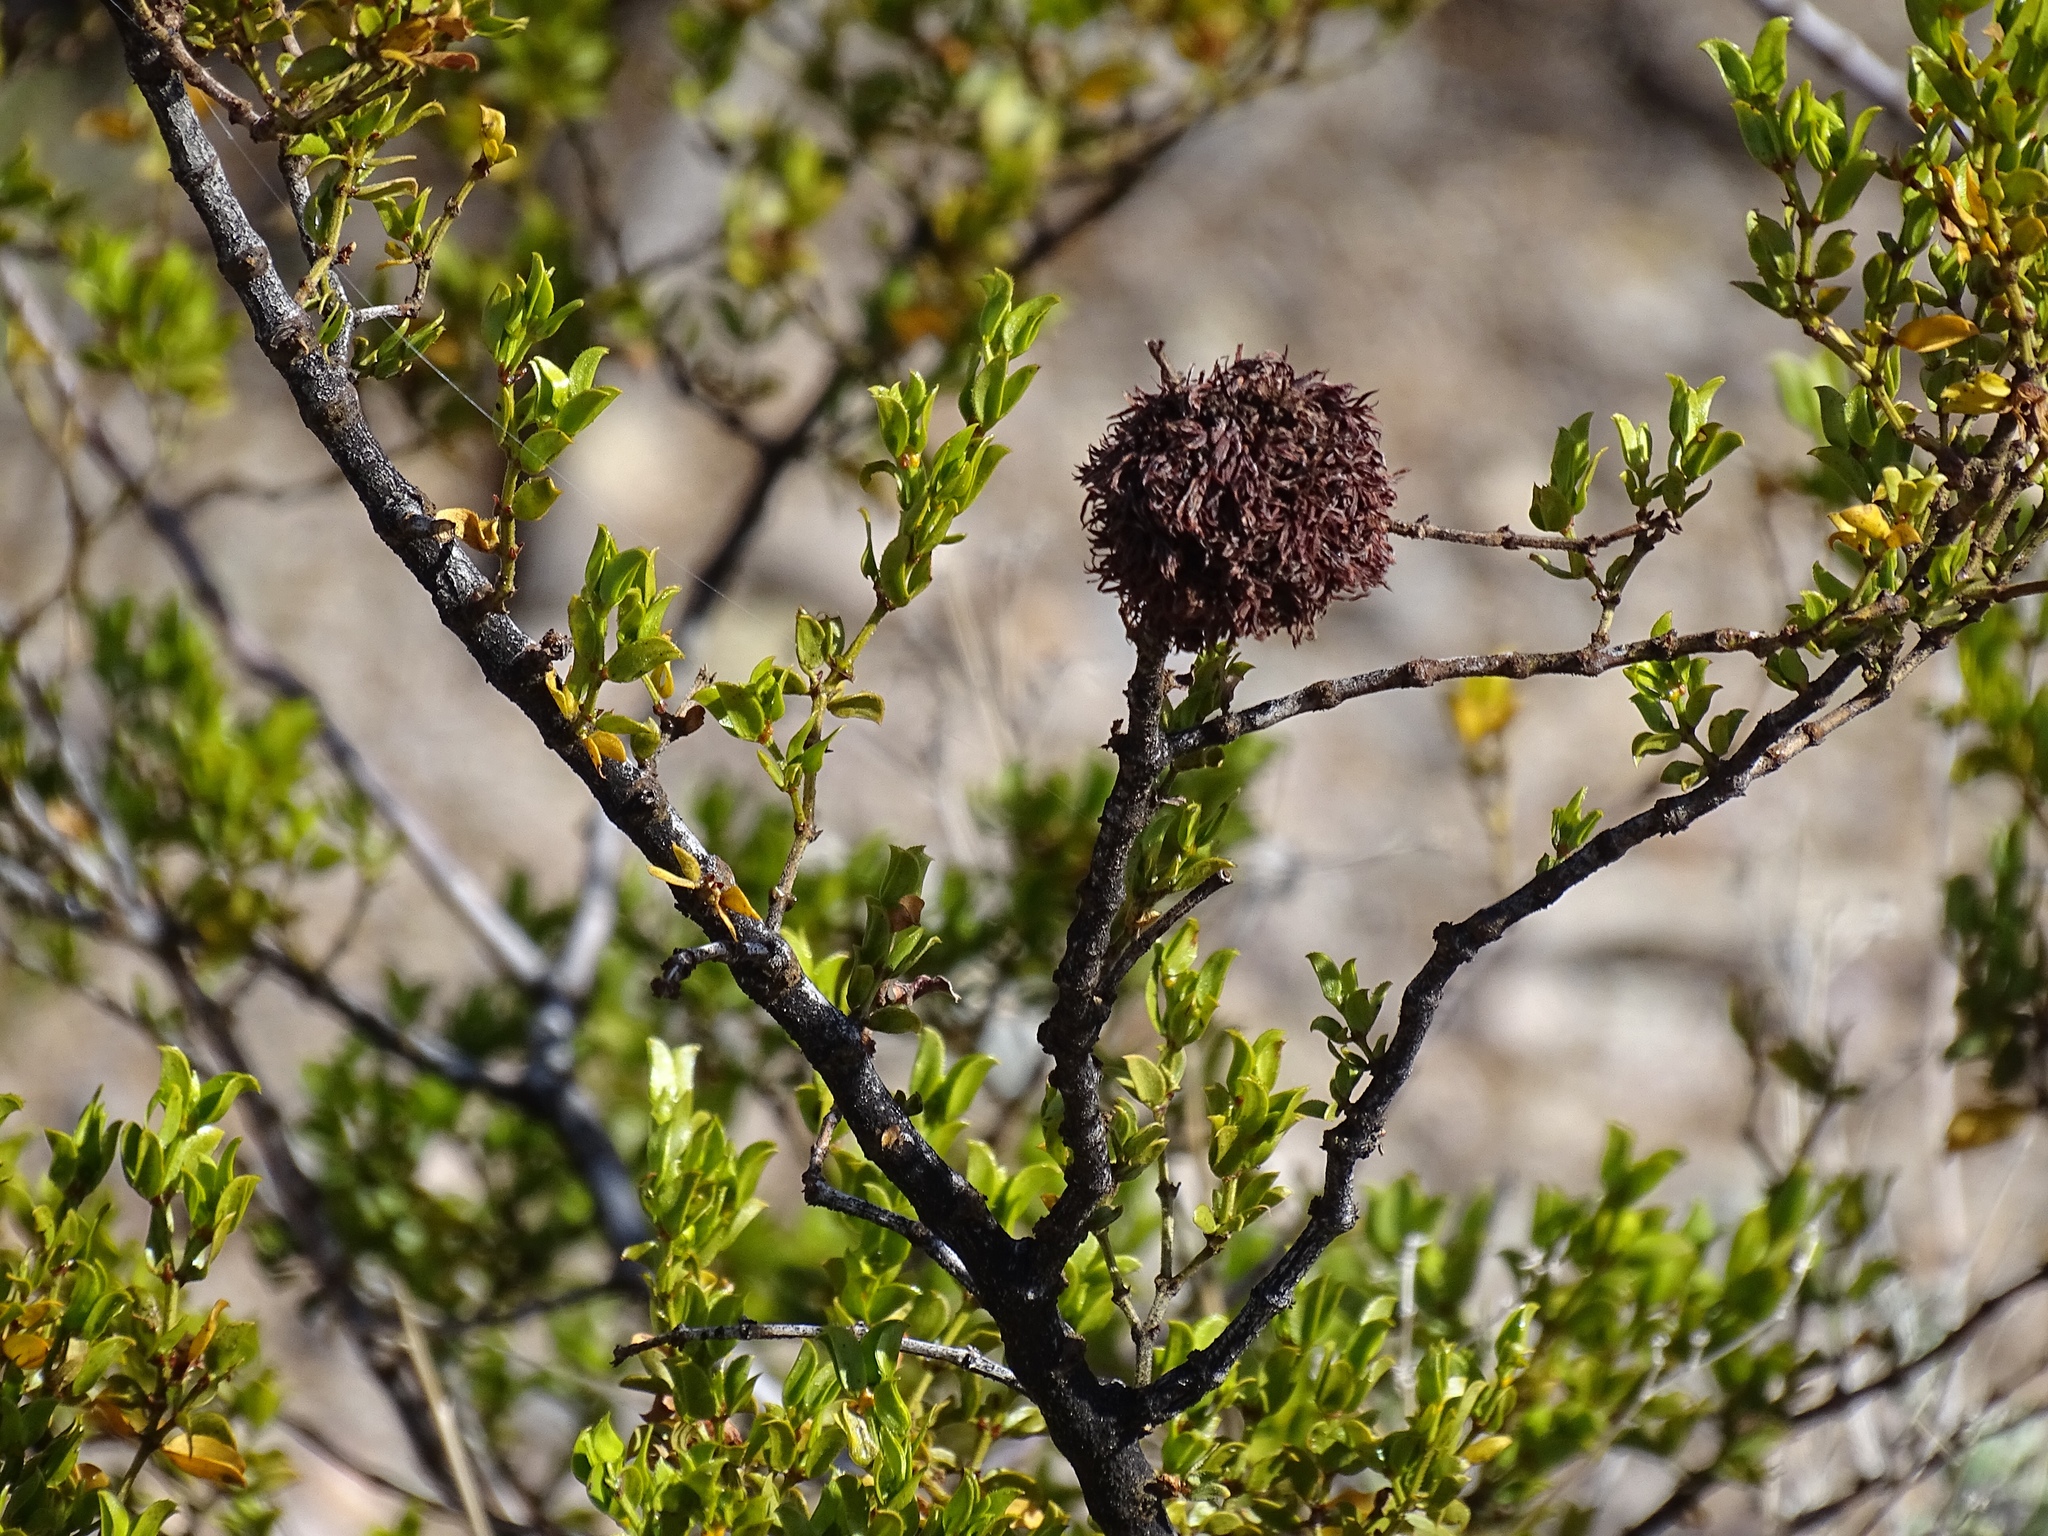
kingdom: Animalia
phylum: Arthropoda
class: Insecta
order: Diptera
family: Cecidomyiidae
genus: Asphondylia
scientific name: Asphondylia auripila
